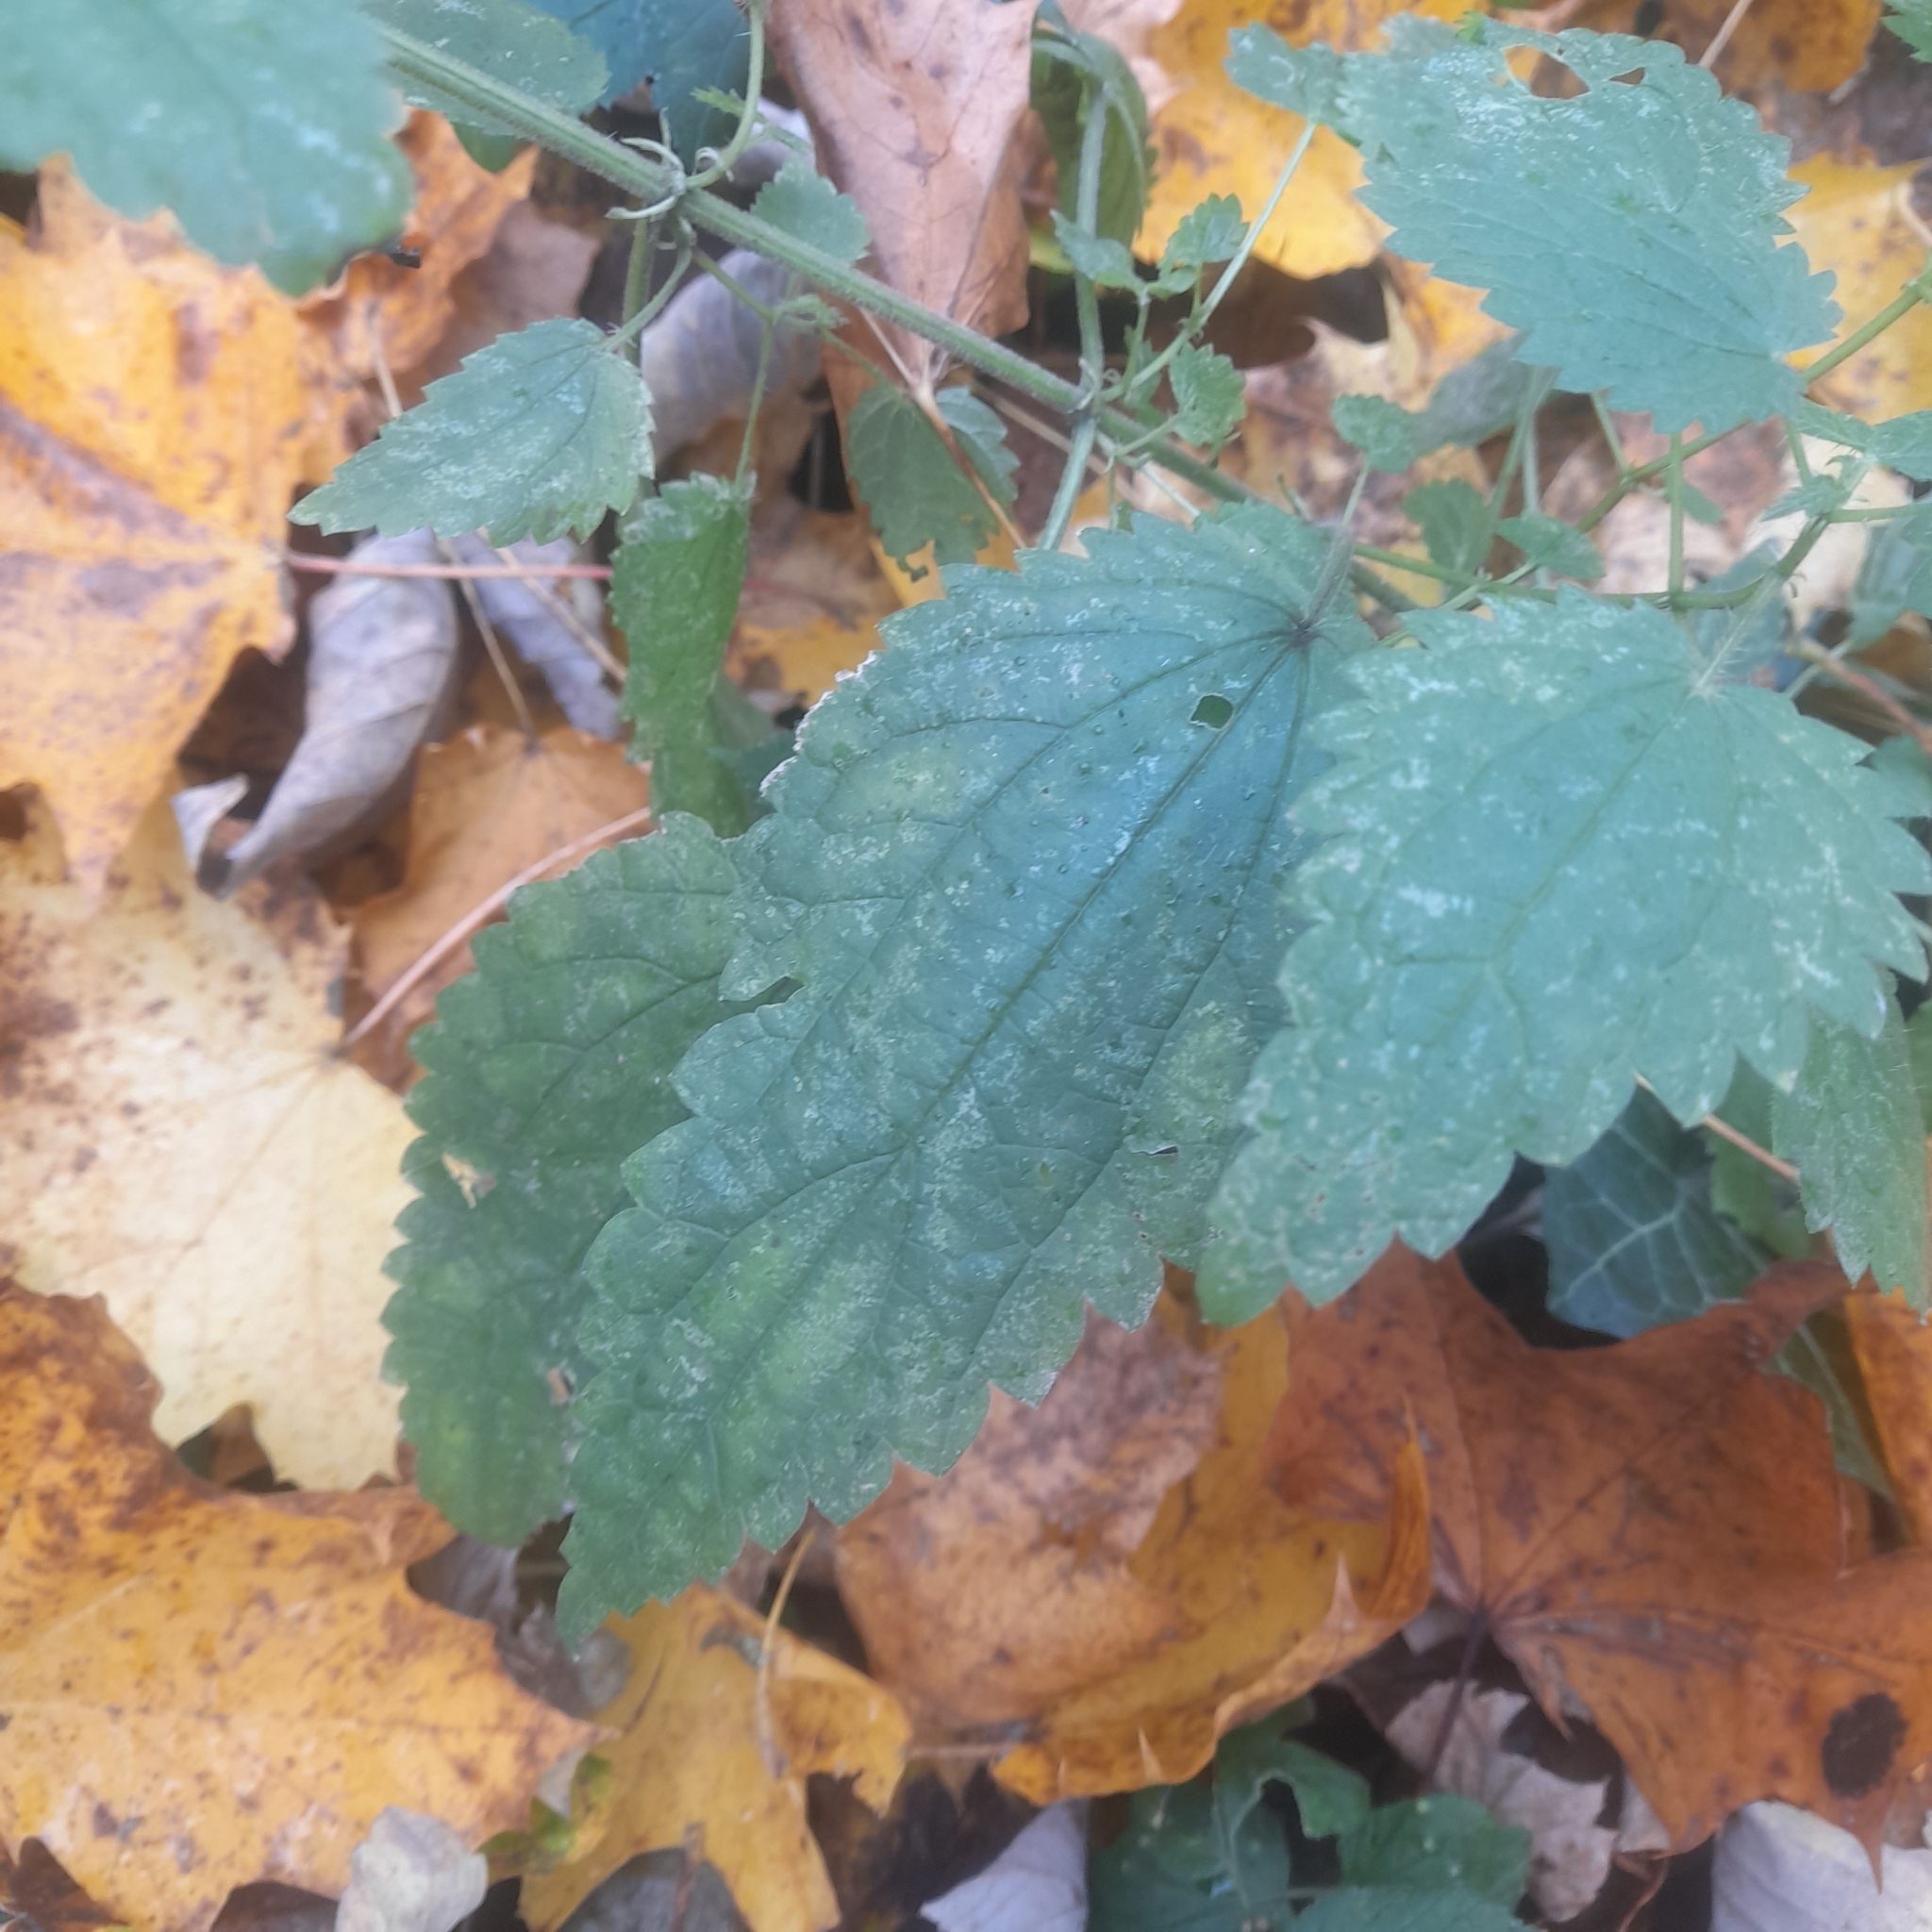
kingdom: Plantae
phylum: Tracheophyta
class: Magnoliopsida
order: Rosales
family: Urticaceae
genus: Urtica
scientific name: Urtica dioica
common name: Common nettle
